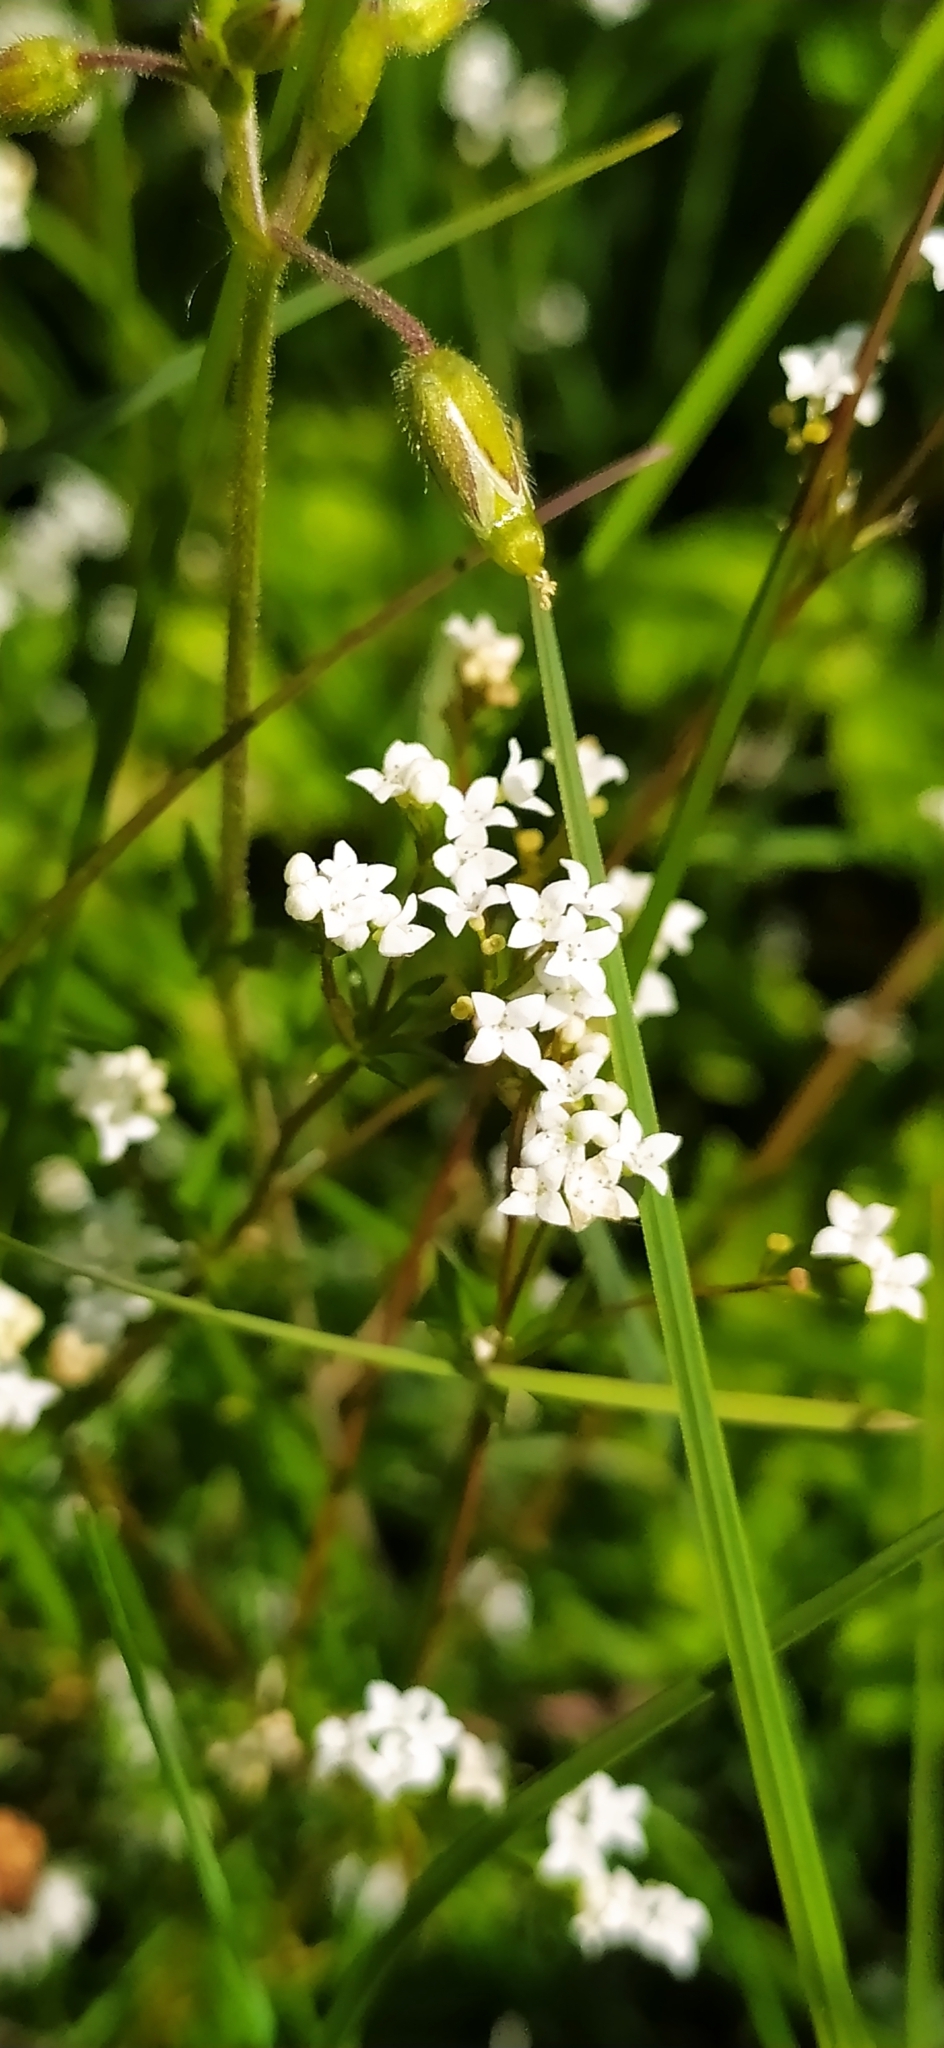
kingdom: Plantae
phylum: Tracheophyta
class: Magnoliopsida
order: Gentianales
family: Rubiaceae
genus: Galium
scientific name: Galium uliginosum
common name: Fen bedstraw
